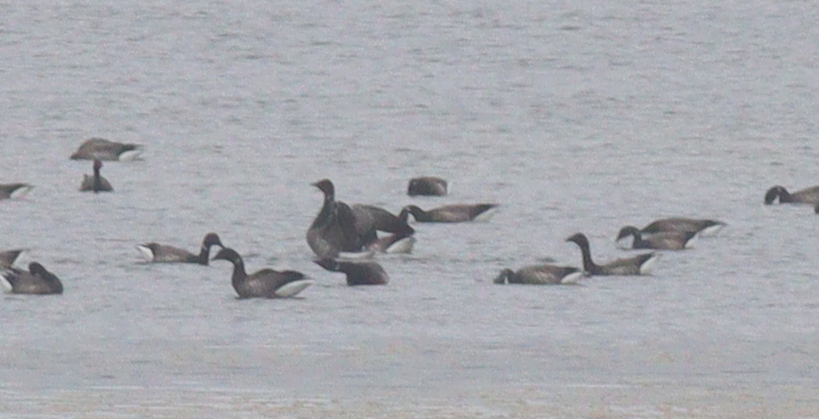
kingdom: Animalia
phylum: Chordata
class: Aves
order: Anseriformes
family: Anatidae
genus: Branta
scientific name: Branta bernicla
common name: Brant goose
